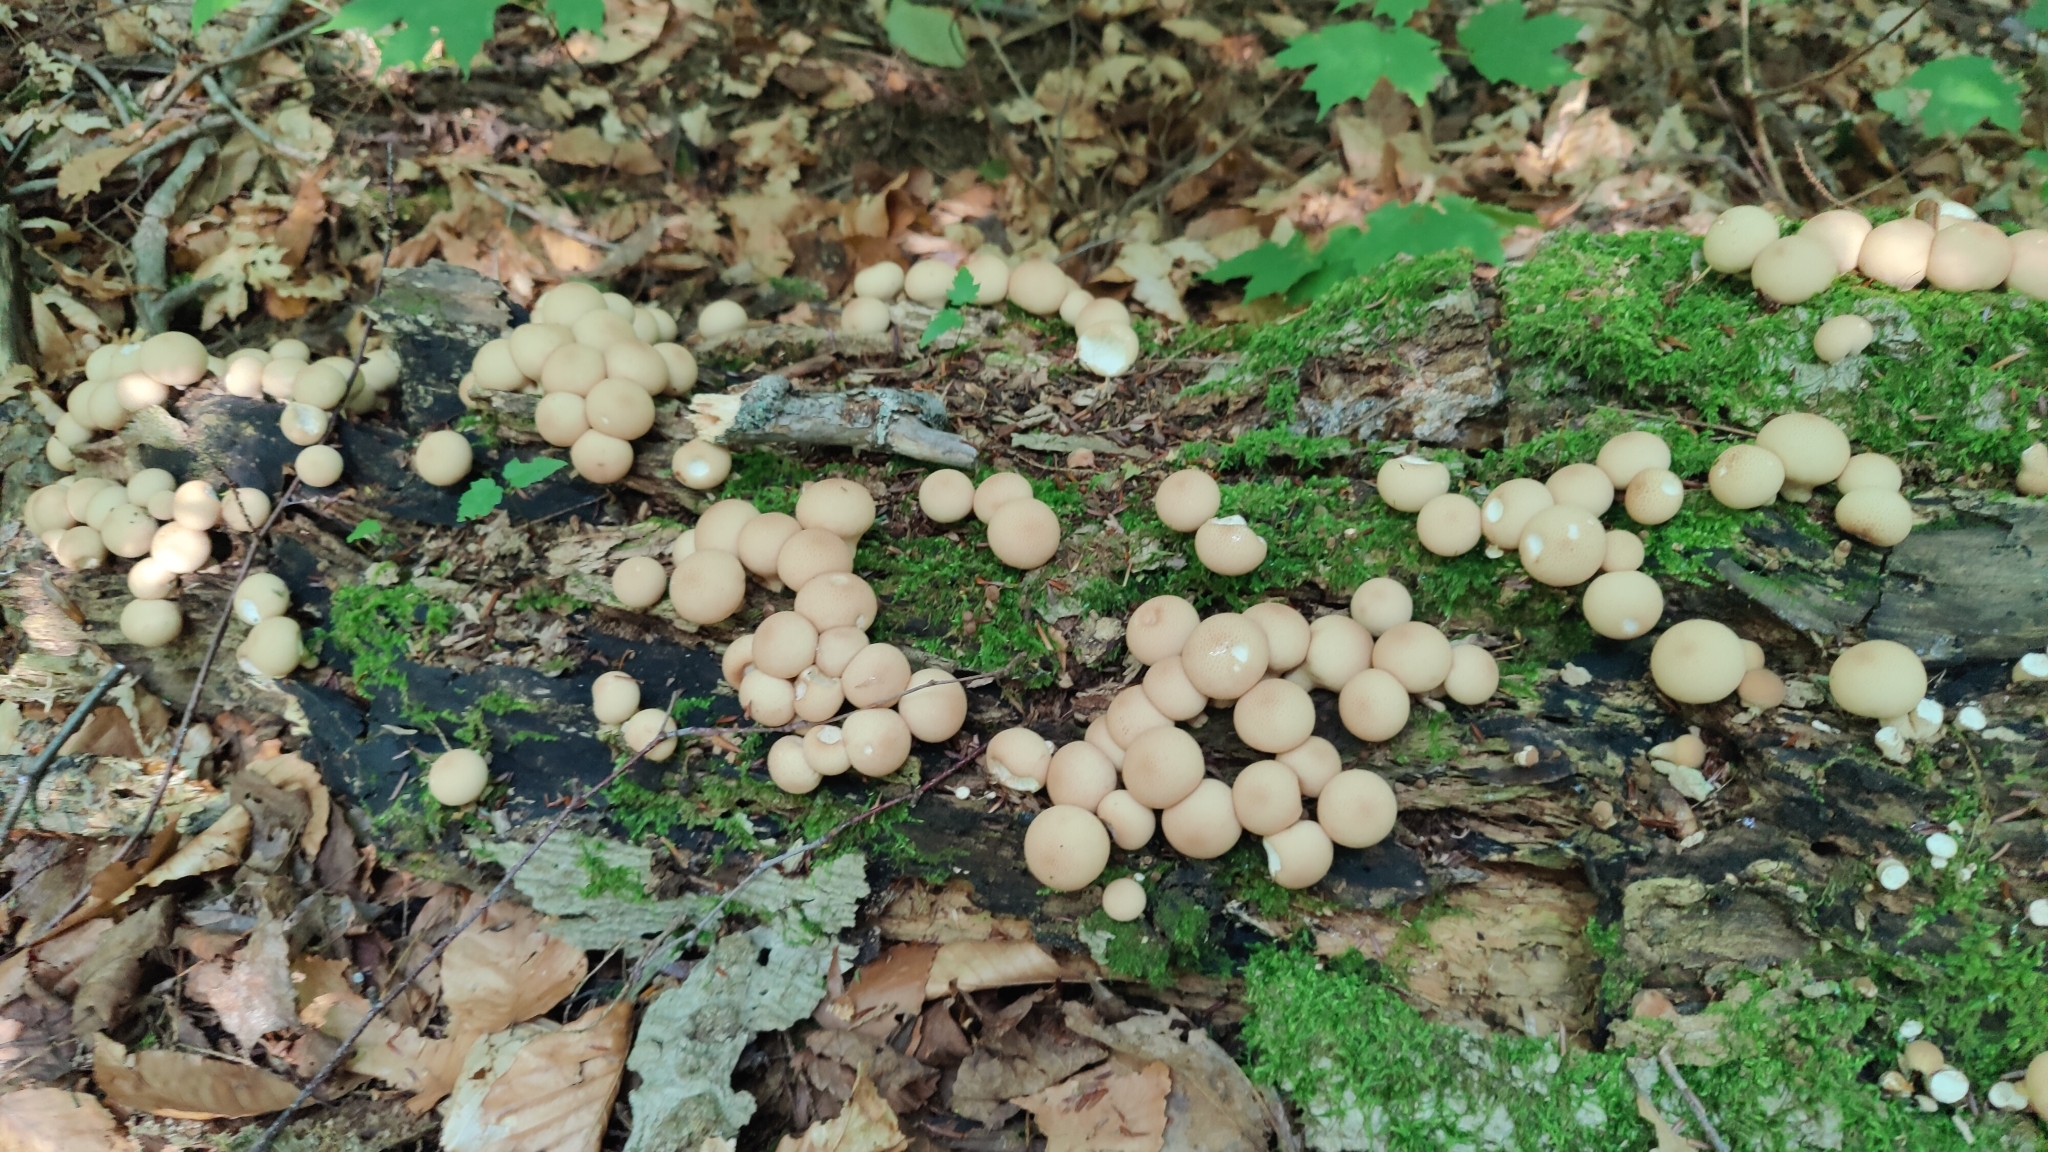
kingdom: Fungi
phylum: Basidiomycota
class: Agaricomycetes
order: Agaricales
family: Lycoperdaceae
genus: Apioperdon
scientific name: Apioperdon pyriforme
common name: Pear-shaped puffball
